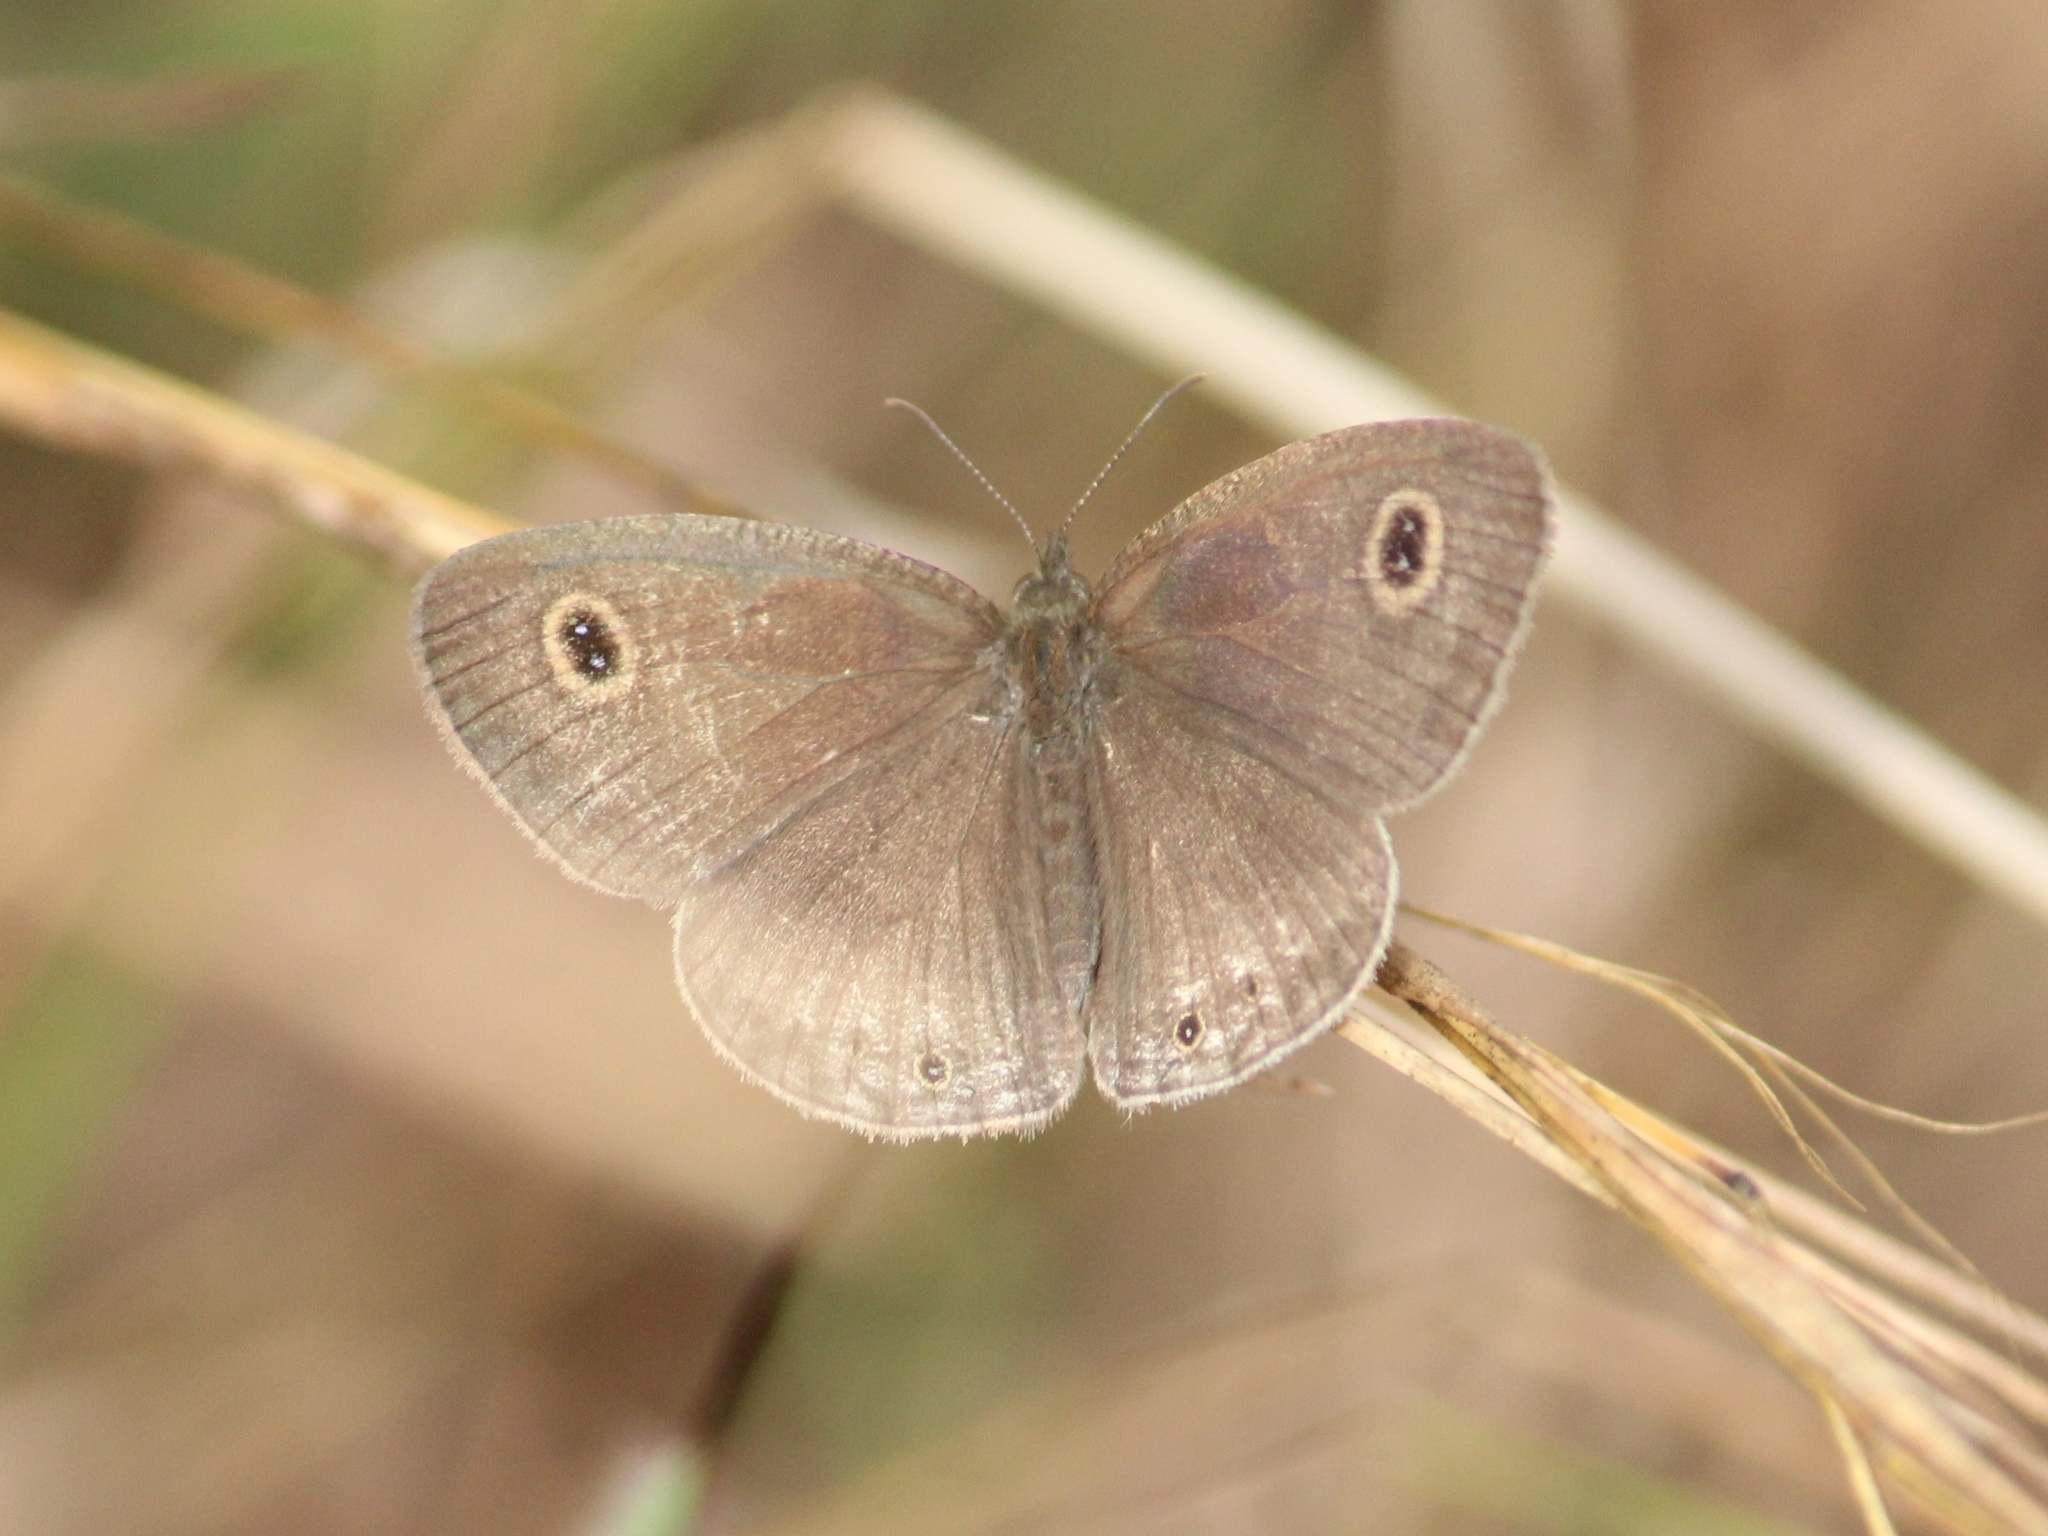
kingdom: Animalia
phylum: Arthropoda
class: Insecta
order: Lepidoptera
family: Nymphalidae
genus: Ypthima
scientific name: Ypthima huebneri
